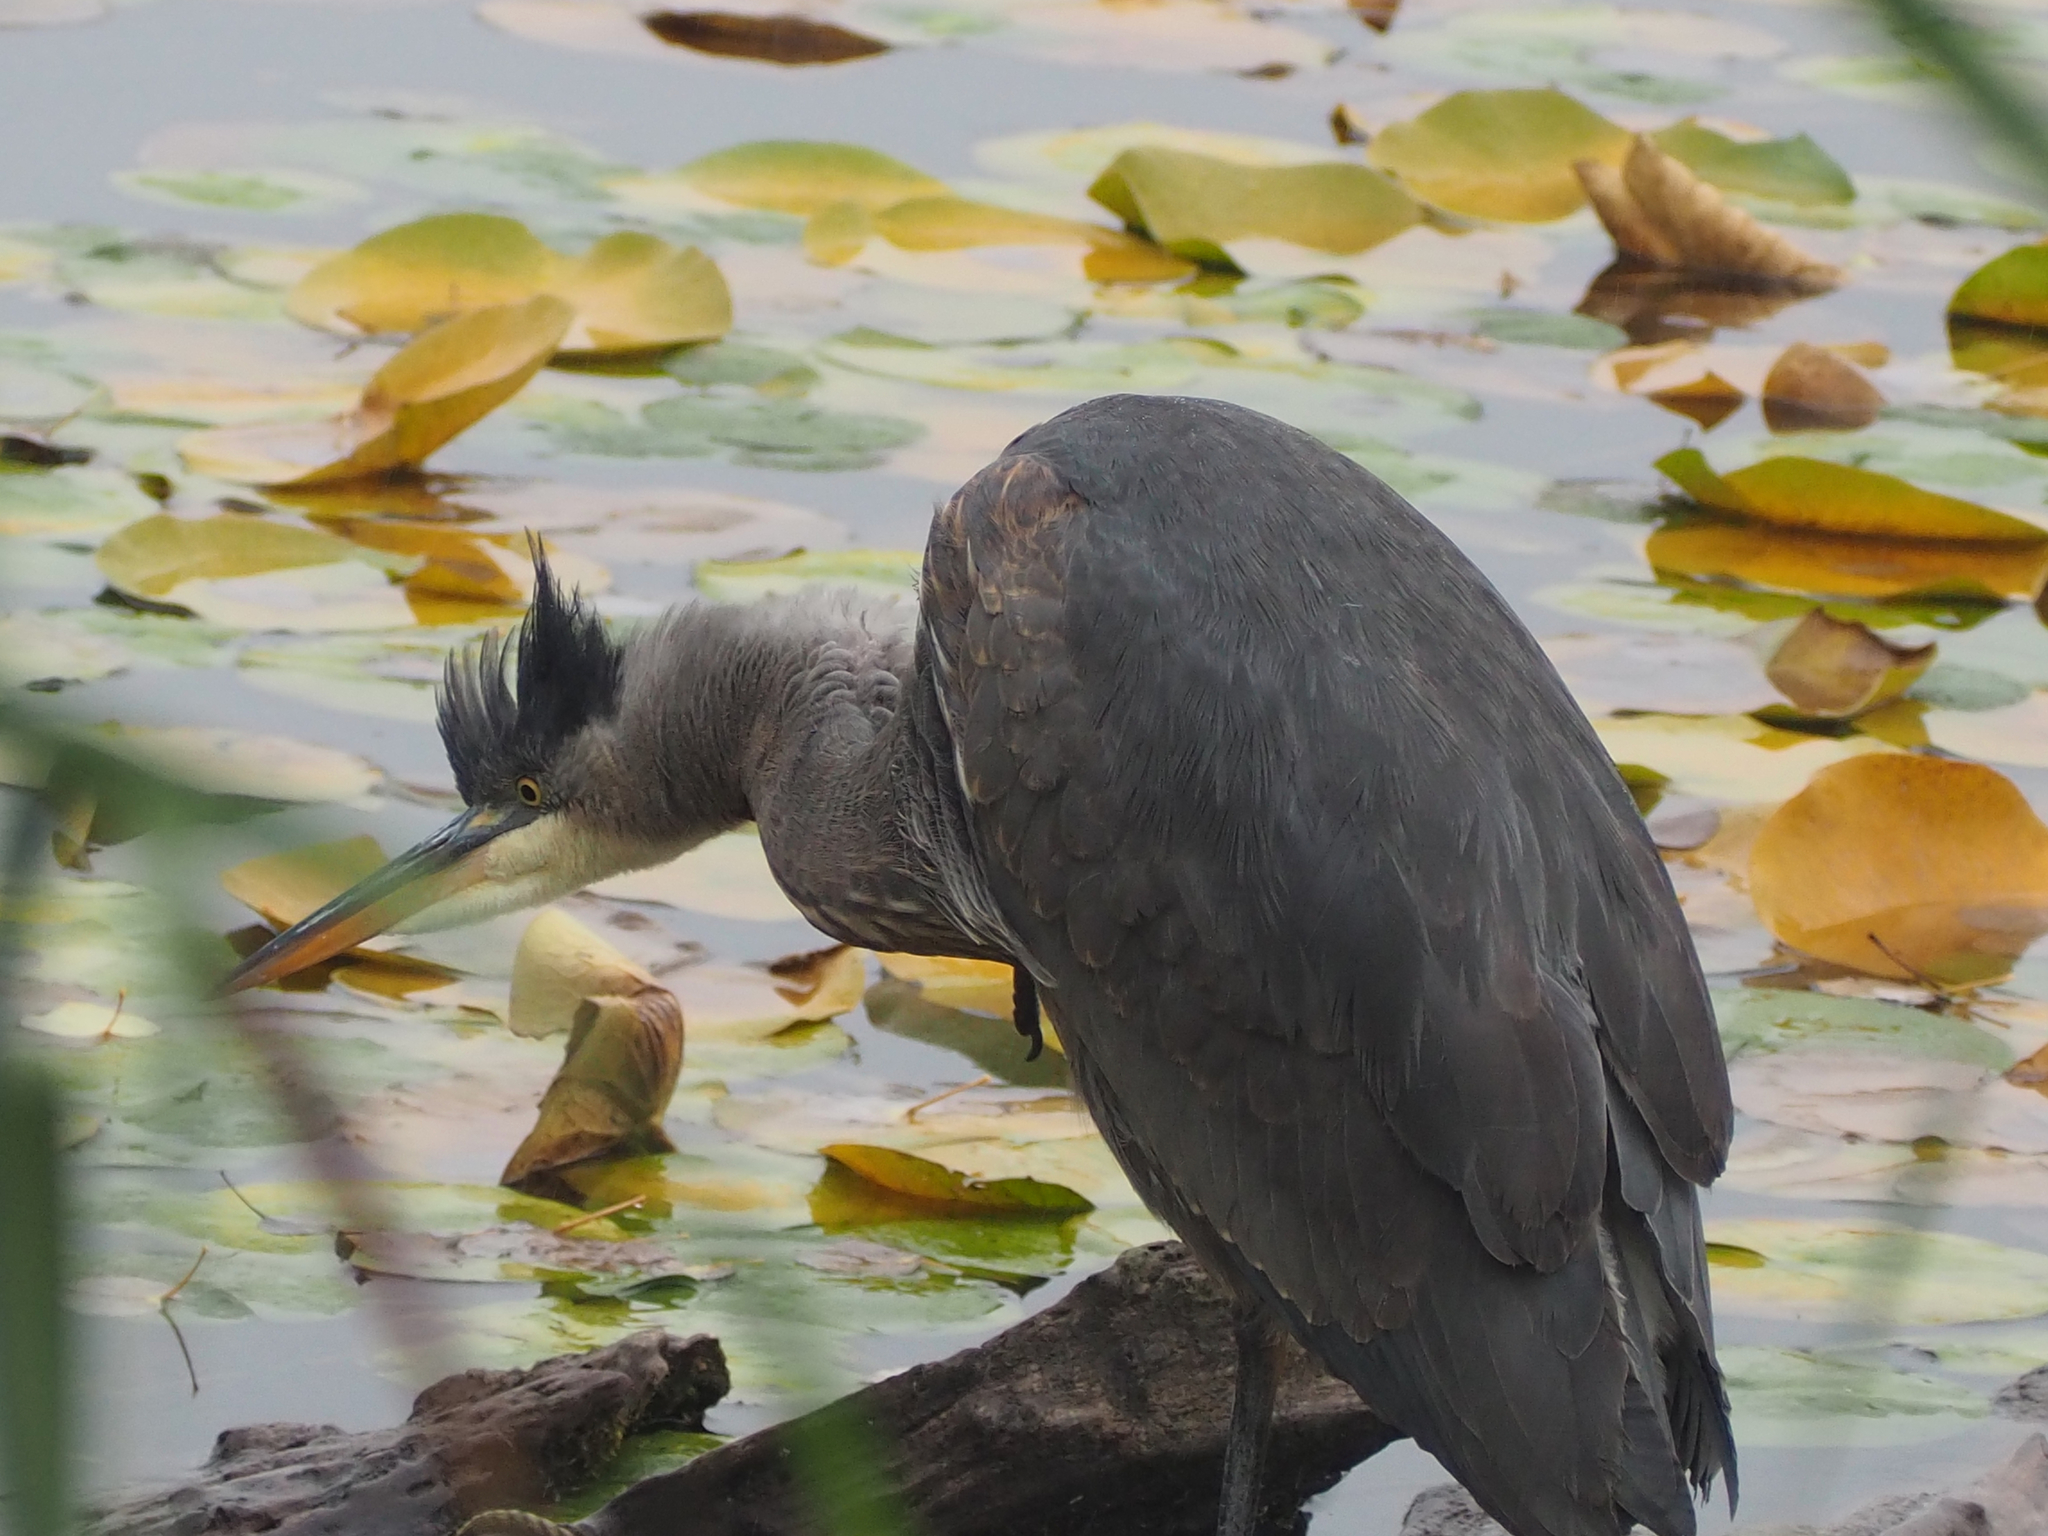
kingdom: Animalia
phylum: Chordata
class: Aves
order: Pelecaniformes
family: Ardeidae
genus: Ardea
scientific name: Ardea herodias
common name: Great blue heron
